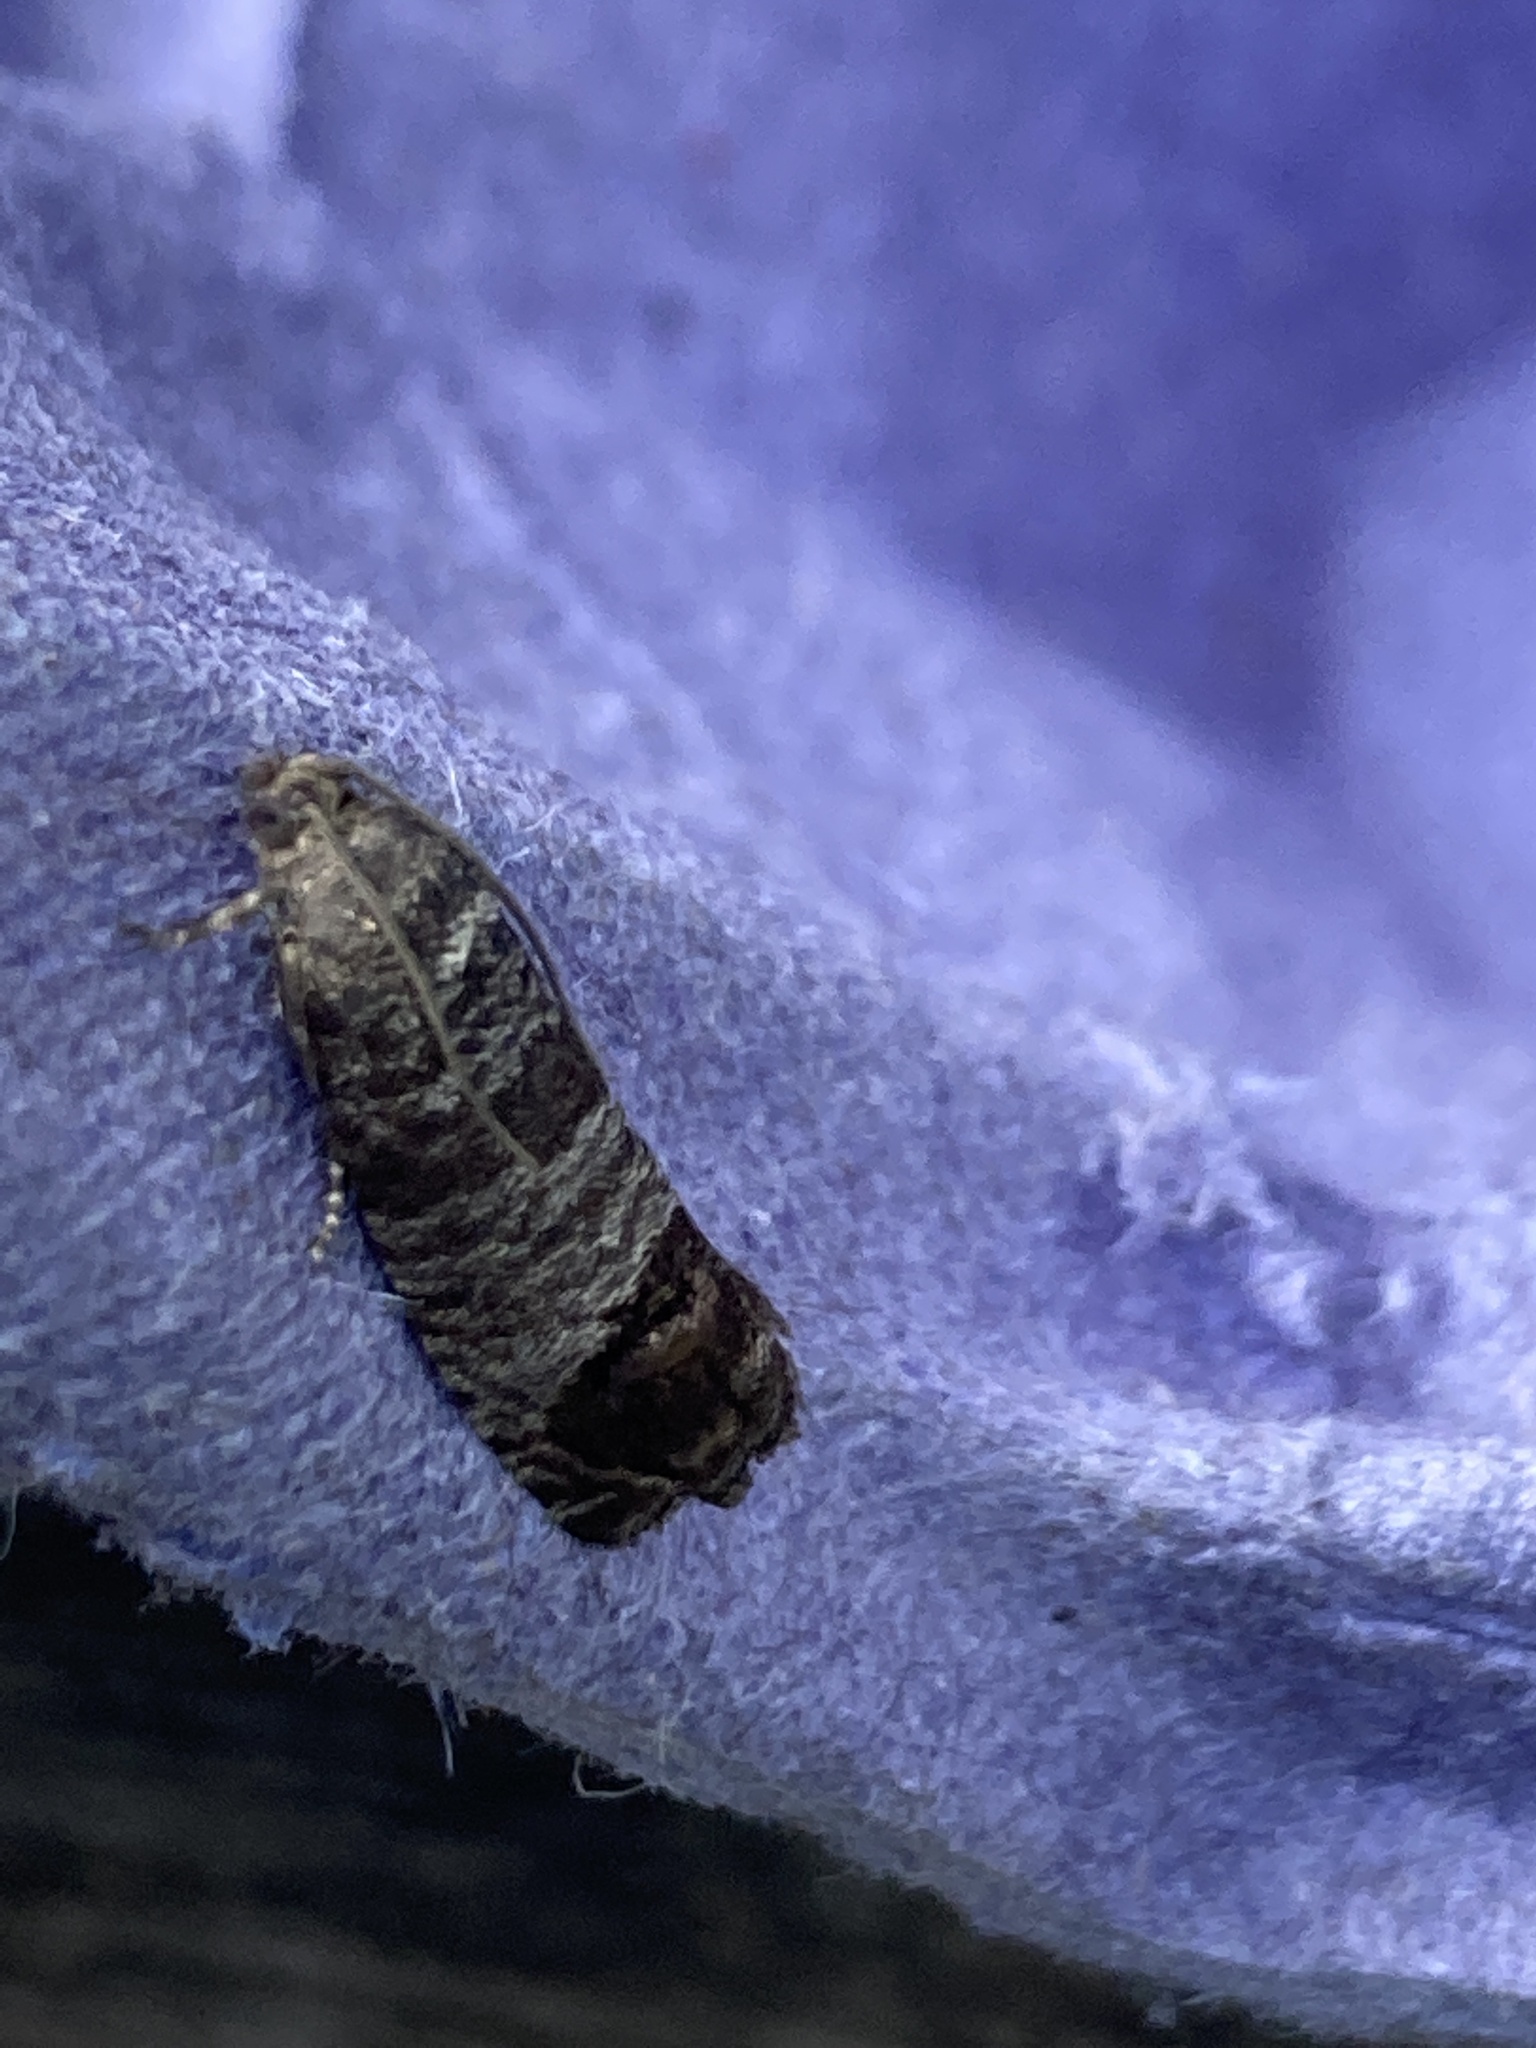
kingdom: Animalia
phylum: Arthropoda
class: Insecta
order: Lepidoptera
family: Tortricidae
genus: Cydia
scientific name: Cydia pomonella
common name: Codling moth
